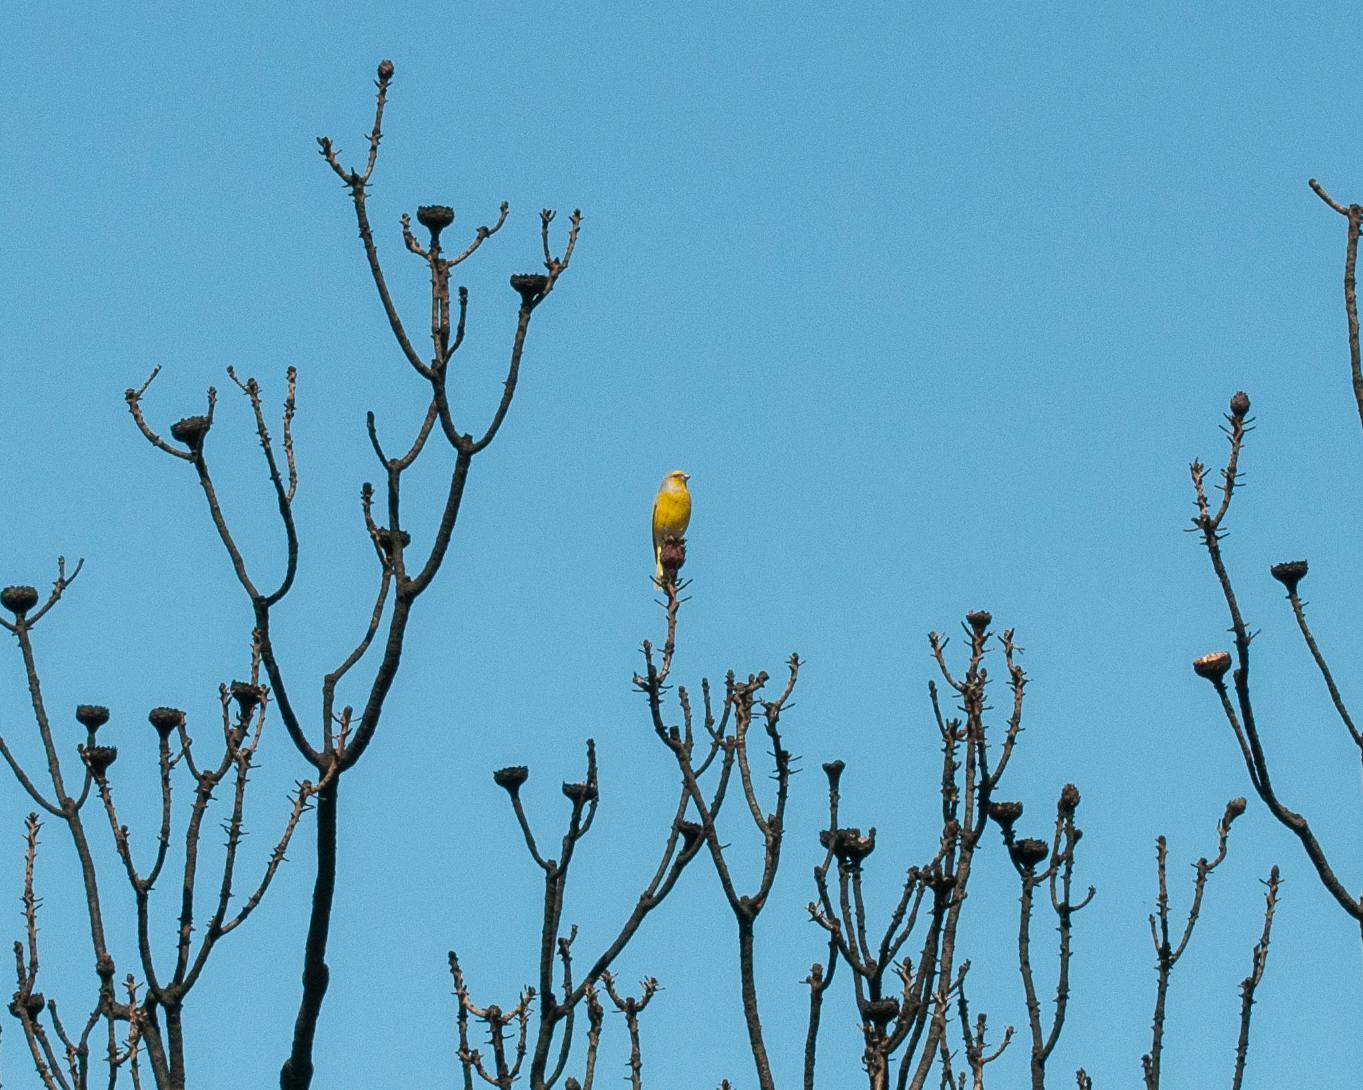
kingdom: Animalia
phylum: Chordata
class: Aves
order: Passeriformes
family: Fringillidae
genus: Serinus
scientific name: Serinus canicollis
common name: Cape canary
